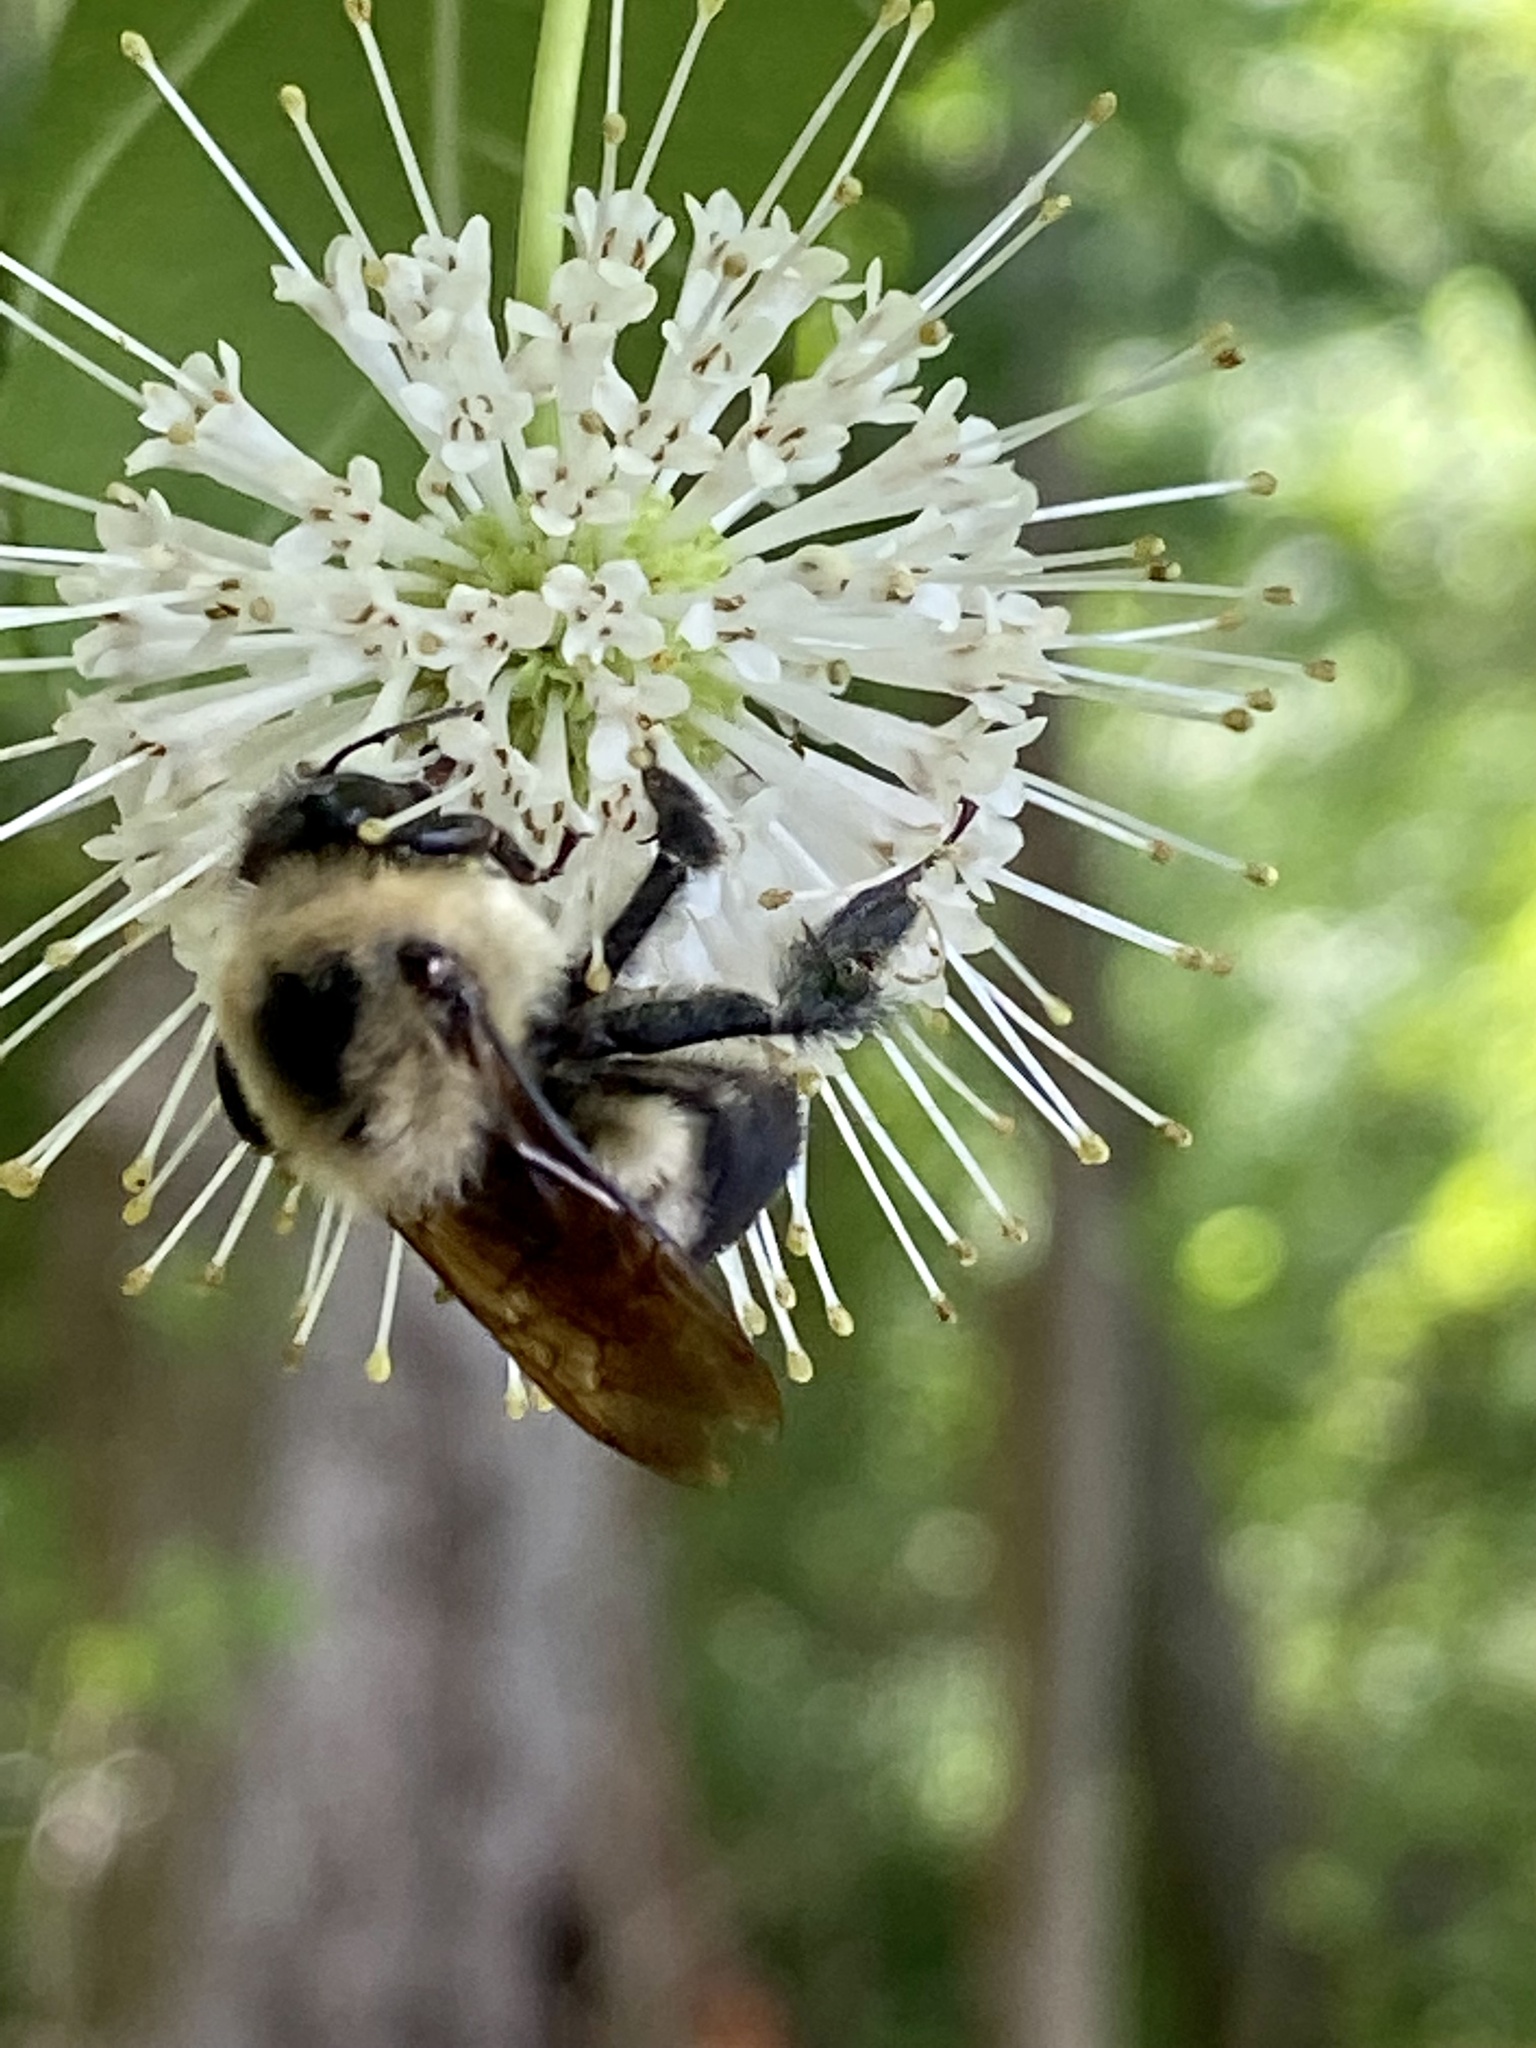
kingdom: Animalia
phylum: Arthropoda
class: Insecta
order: Hymenoptera
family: Apidae
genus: Bombus
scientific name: Bombus griseocollis
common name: Brown-belted bumble bee
